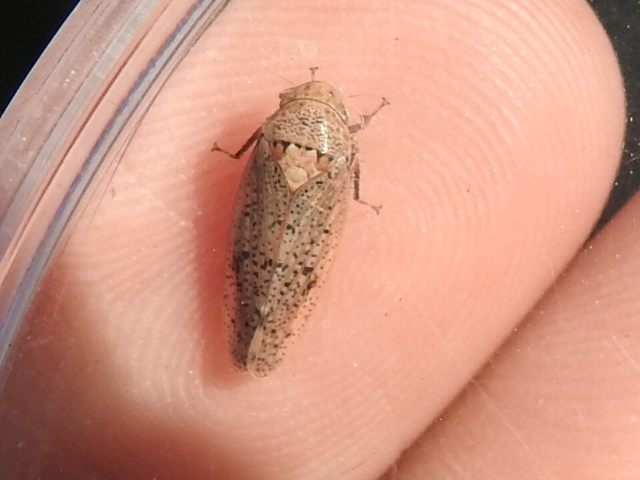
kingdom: Animalia
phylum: Arthropoda
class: Insecta
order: Hemiptera
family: Cicadellidae
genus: Ponana
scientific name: Ponana puncticollis
